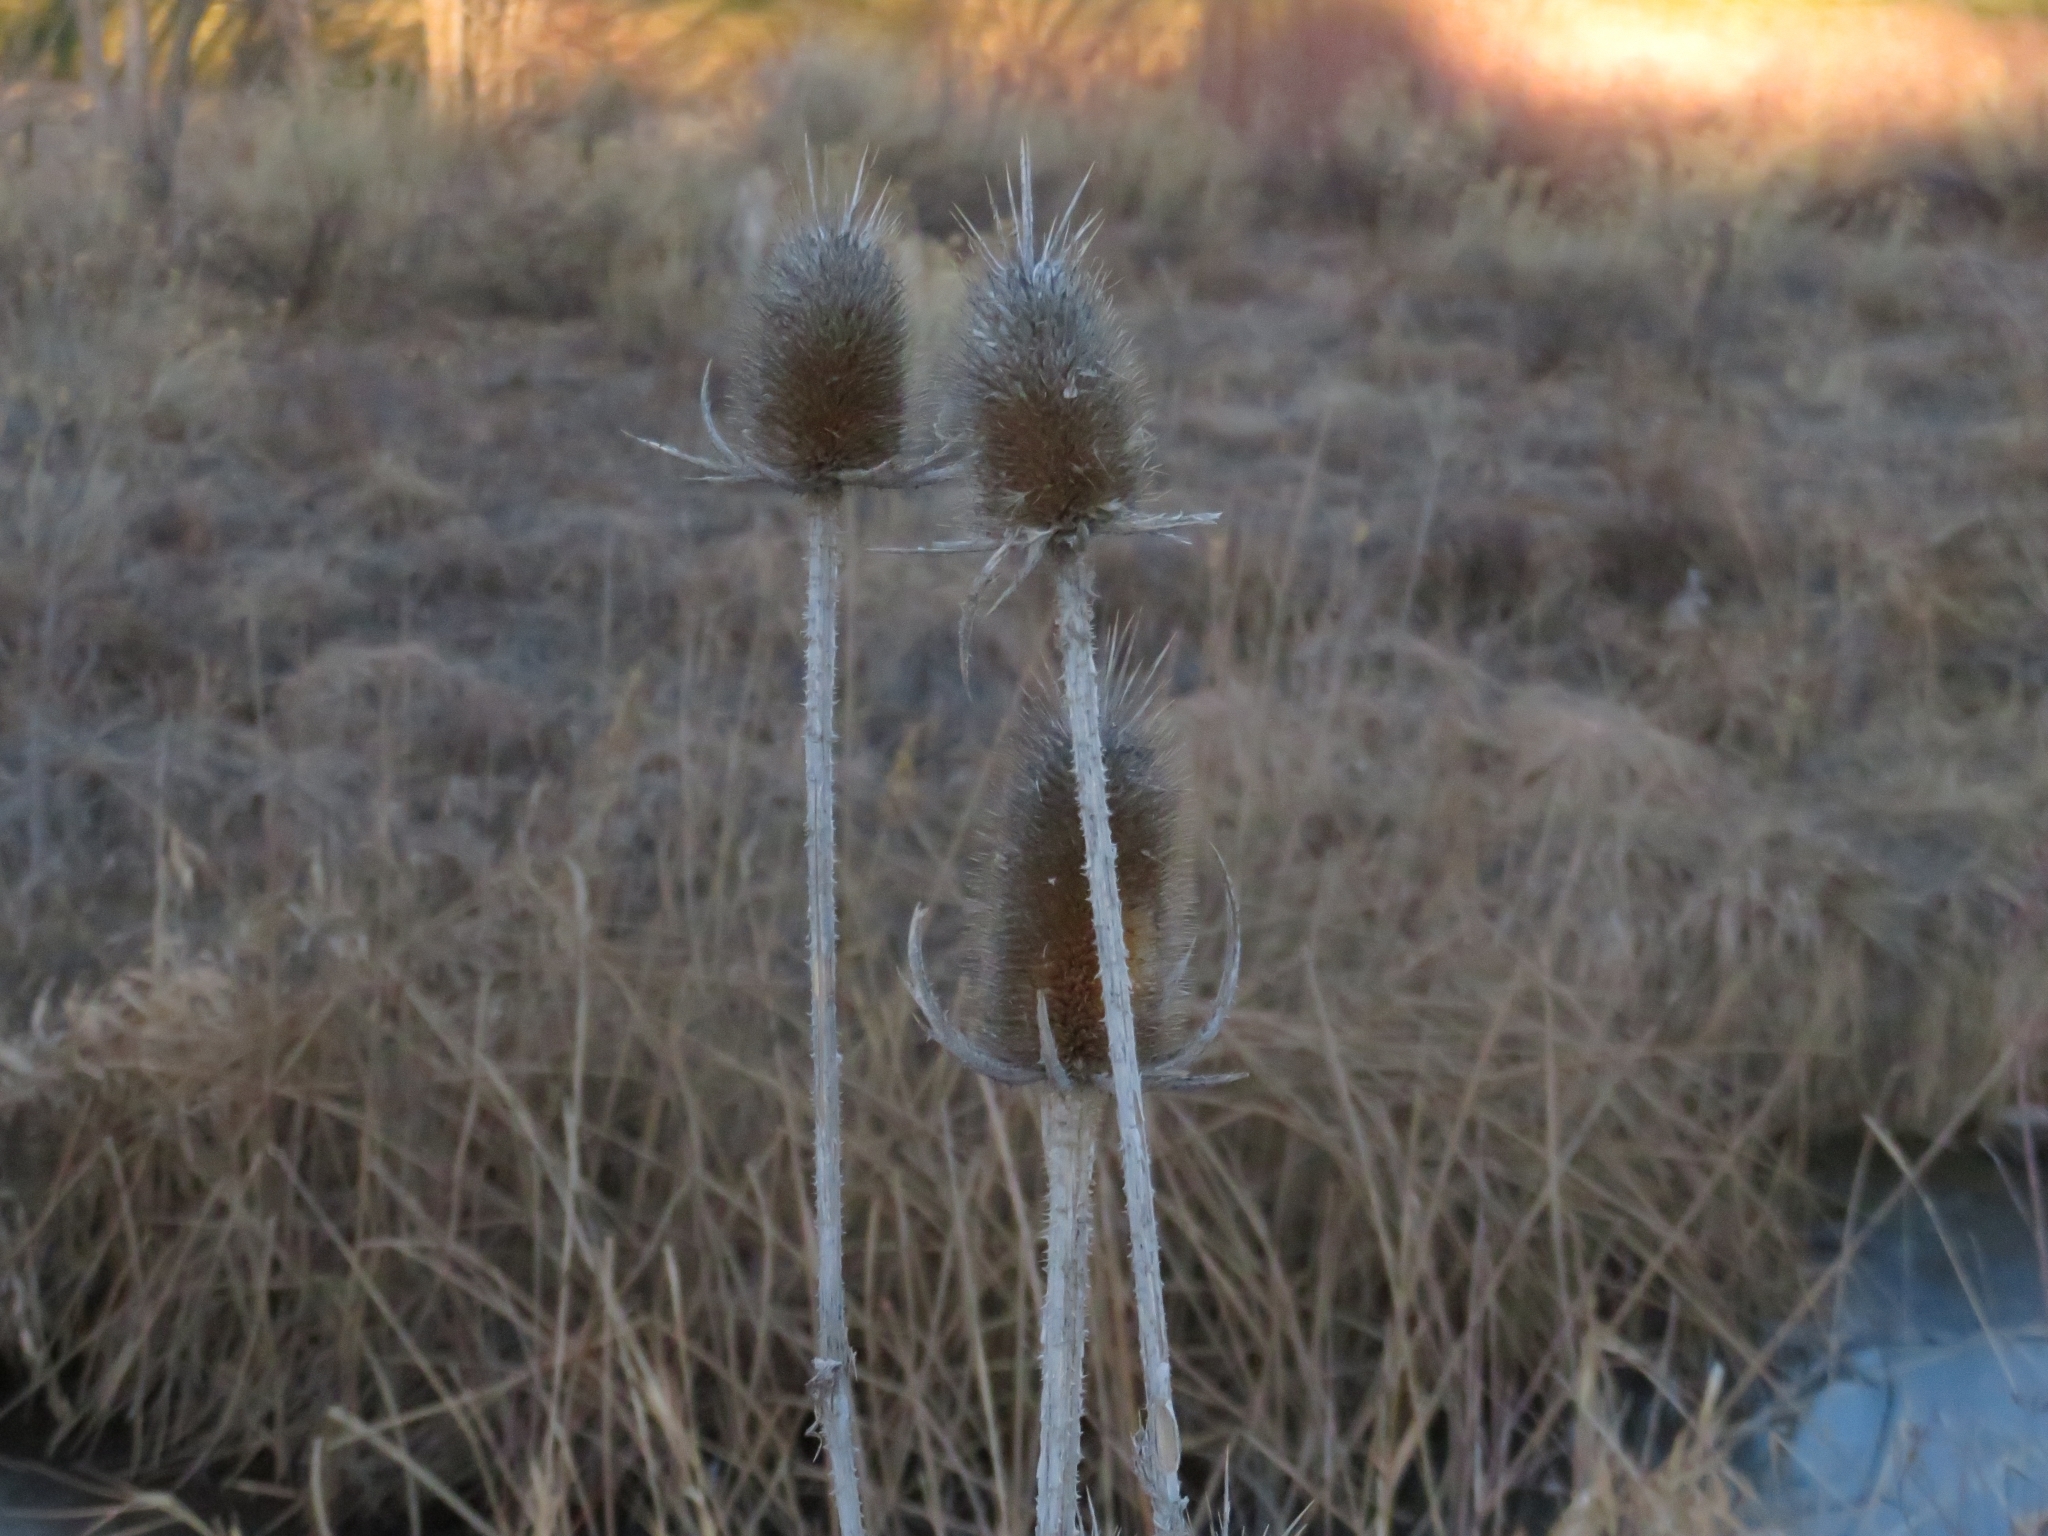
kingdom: Plantae
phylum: Tracheophyta
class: Magnoliopsida
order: Dipsacales
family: Caprifoliaceae
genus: Dipsacus
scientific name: Dipsacus laciniatus
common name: Cut-leaved teasel
